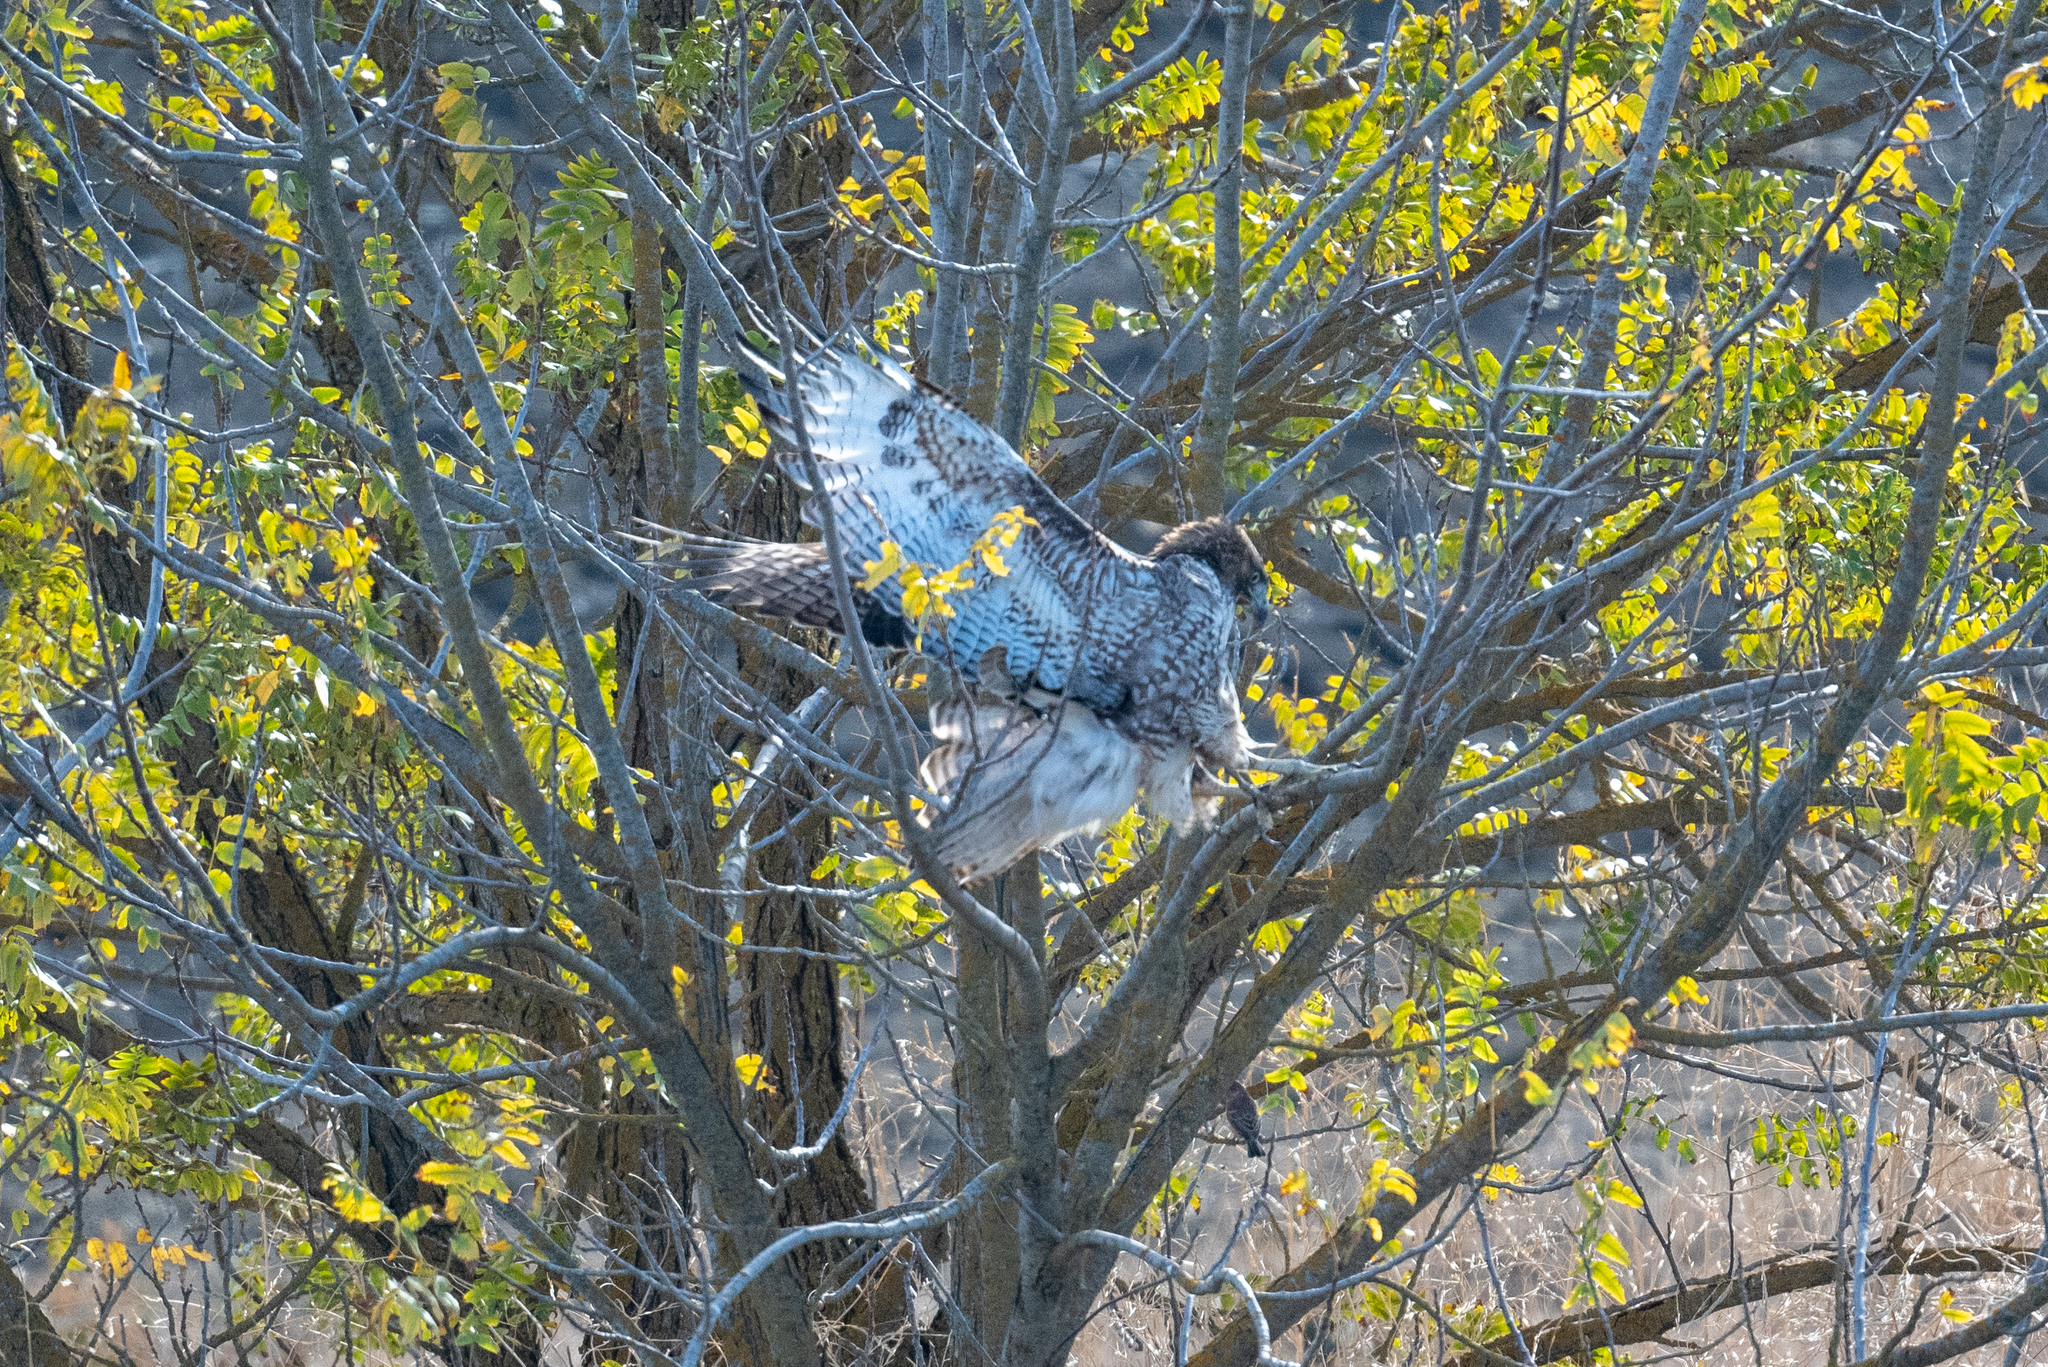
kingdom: Animalia
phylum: Chordata
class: Aves
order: Accipitriformes
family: Accipitridae
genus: Buteo
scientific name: Buteo jamaicensis
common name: Red-tailed hawk
